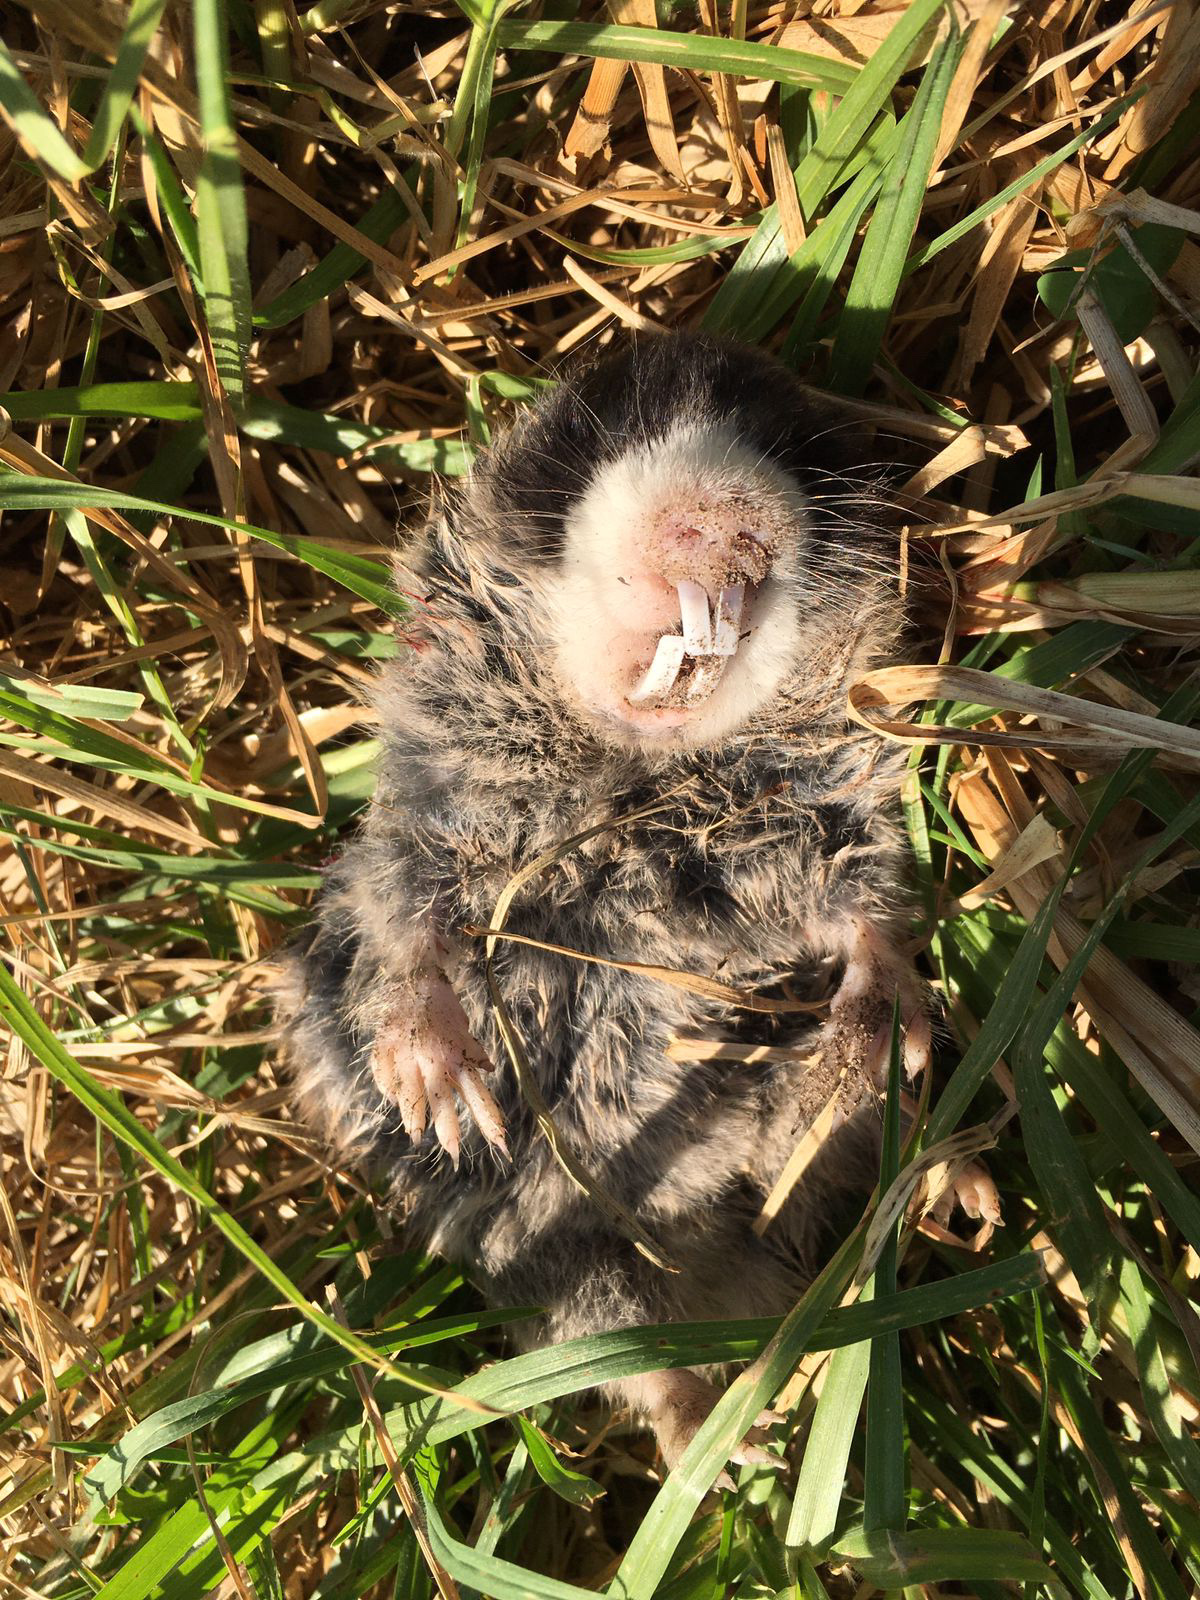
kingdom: Animalia
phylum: Chordata
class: Mammalia
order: Rodentia
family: Bathyergidae
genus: Georychus
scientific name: Georychus capensis
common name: Cape mole-rat
